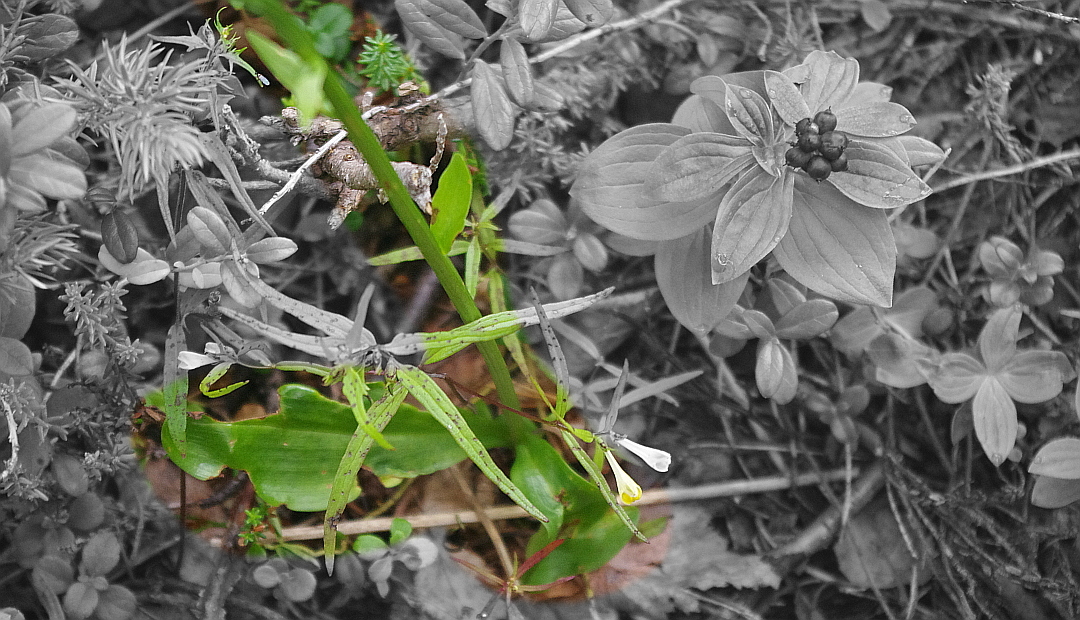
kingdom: Plantae
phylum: Tracheophyta
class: Liliopsida
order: Asparagales
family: Orchidaceae
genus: Gymnadenia
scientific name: Gymnadenia conopsea
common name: Fragrant orchid
